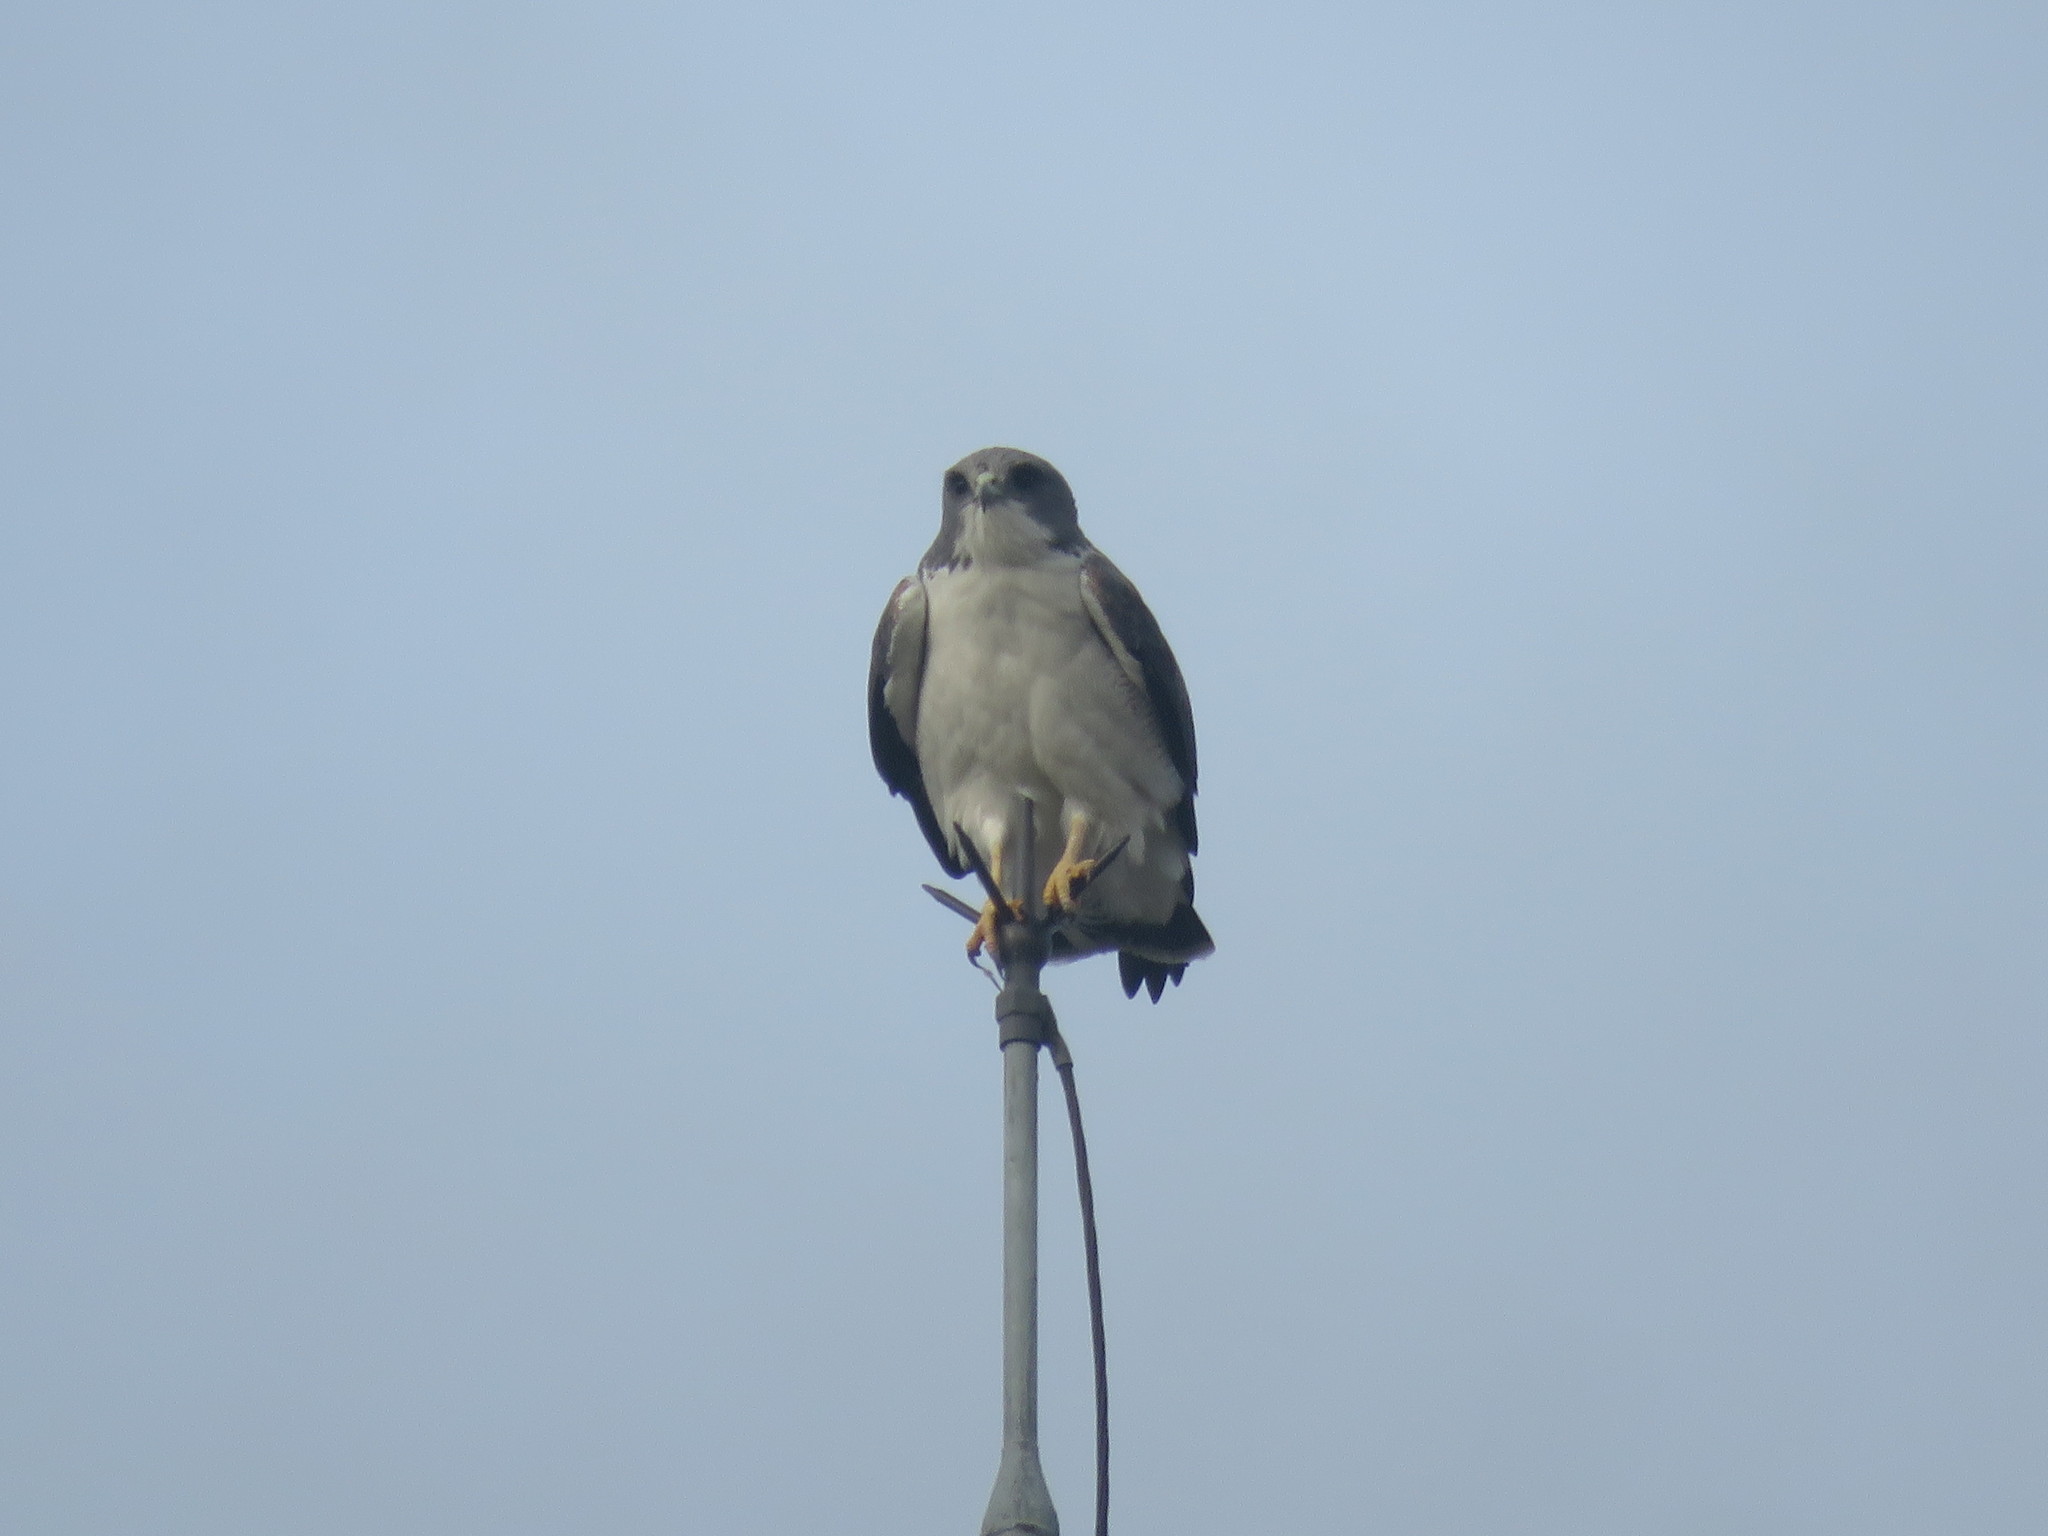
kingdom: Animalia
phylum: Chordata
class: Aves
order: Accipitriformes
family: Accipitridae
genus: Buteo
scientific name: Buteo albicaudatus
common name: White-tailed hawk
